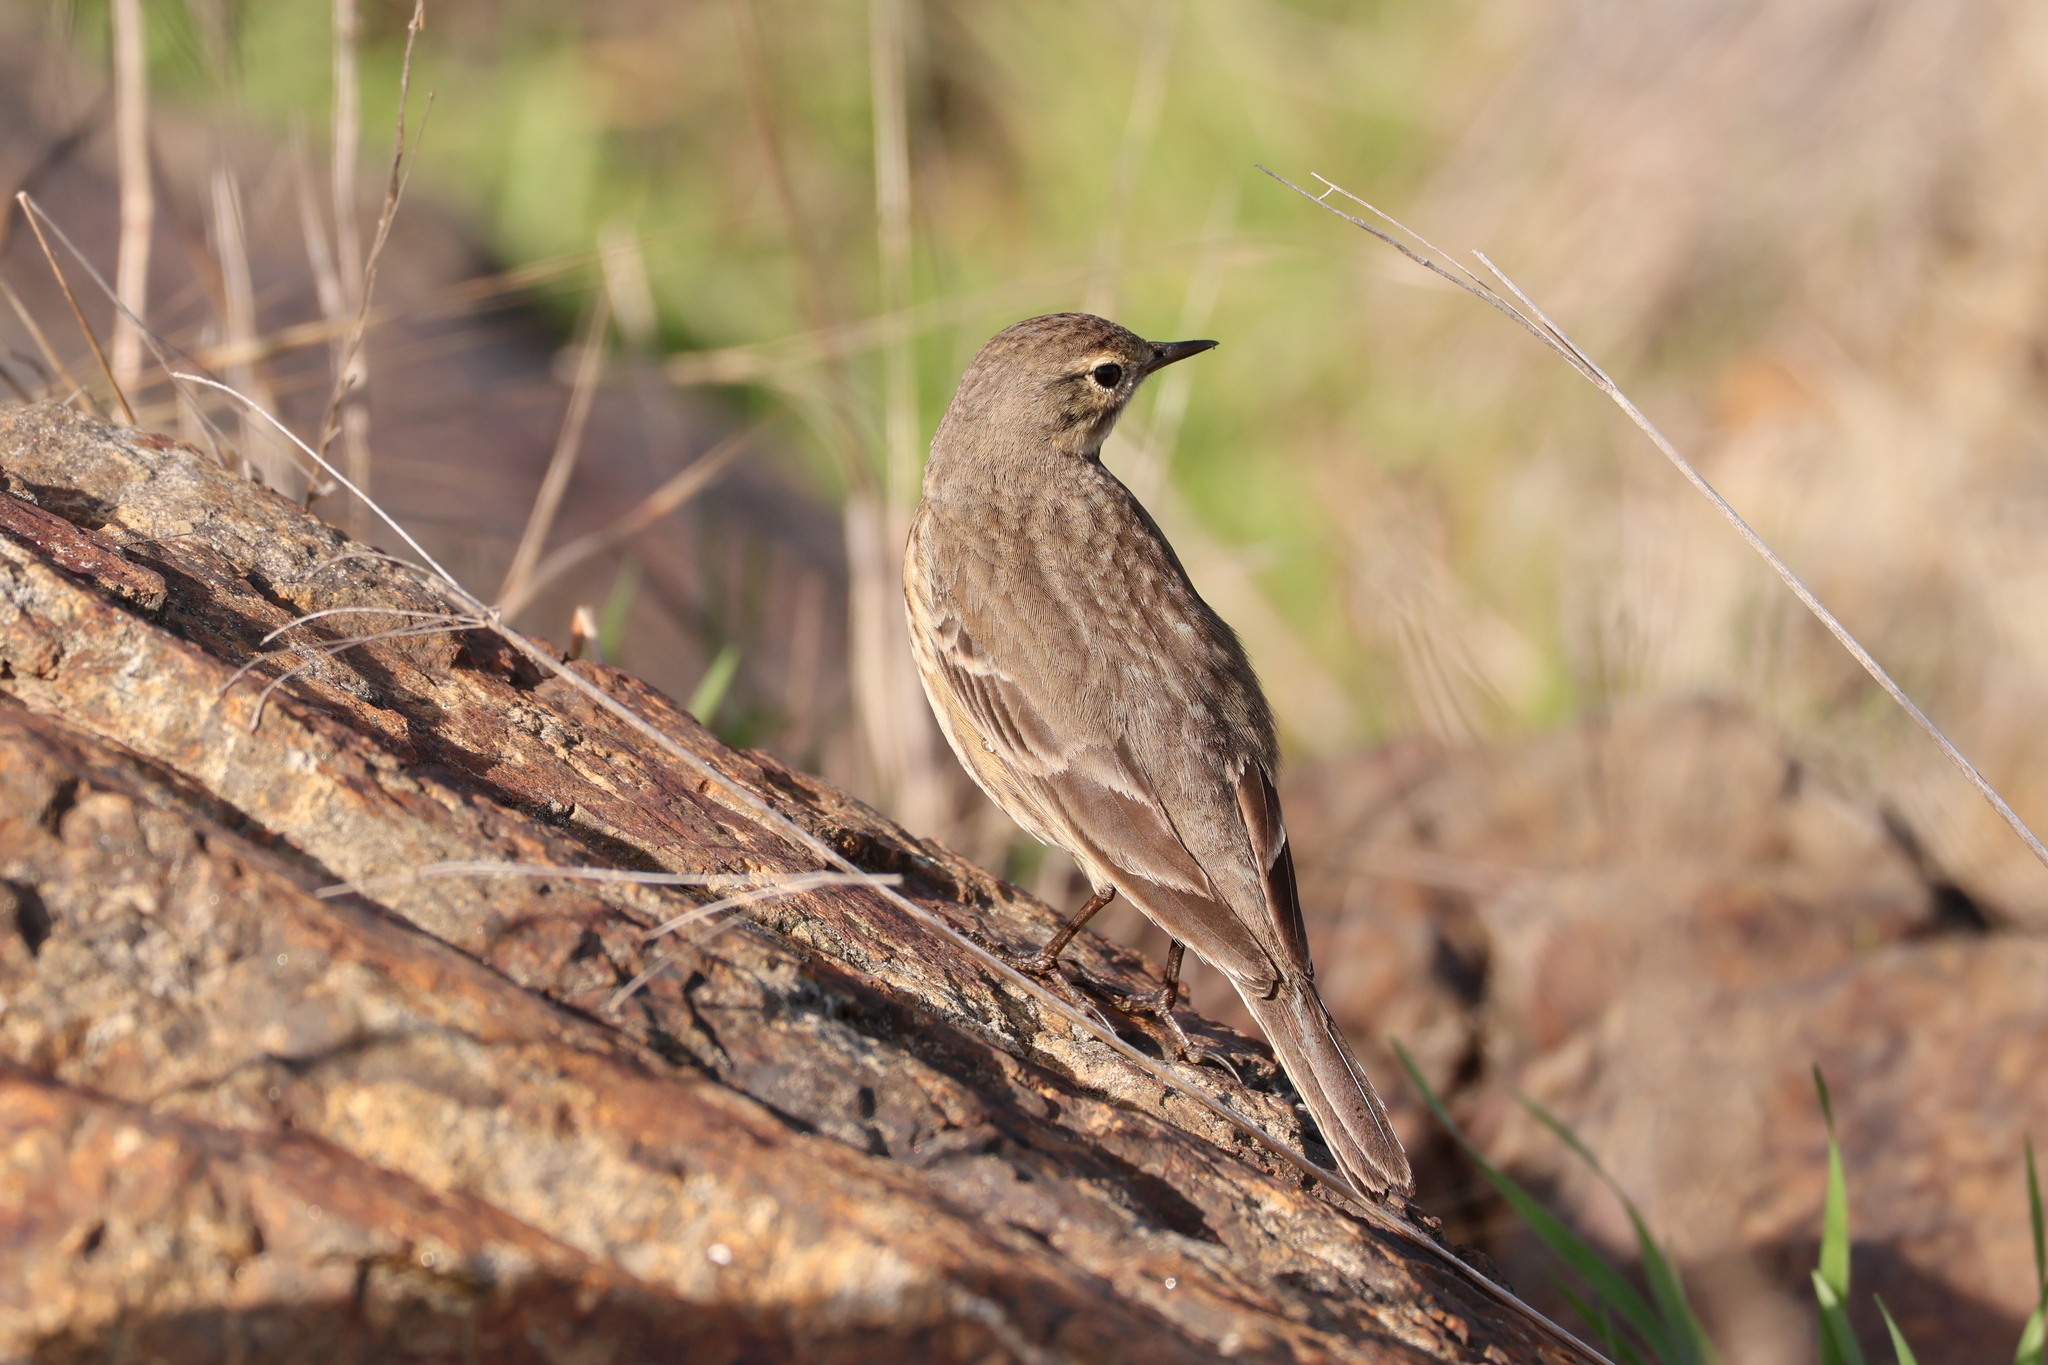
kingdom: Animalia
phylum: Chordata
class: Aves
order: Passeriformes
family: Motacillidae
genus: Anthus
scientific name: Anthus rubescens
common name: Buff-bellied pipit
